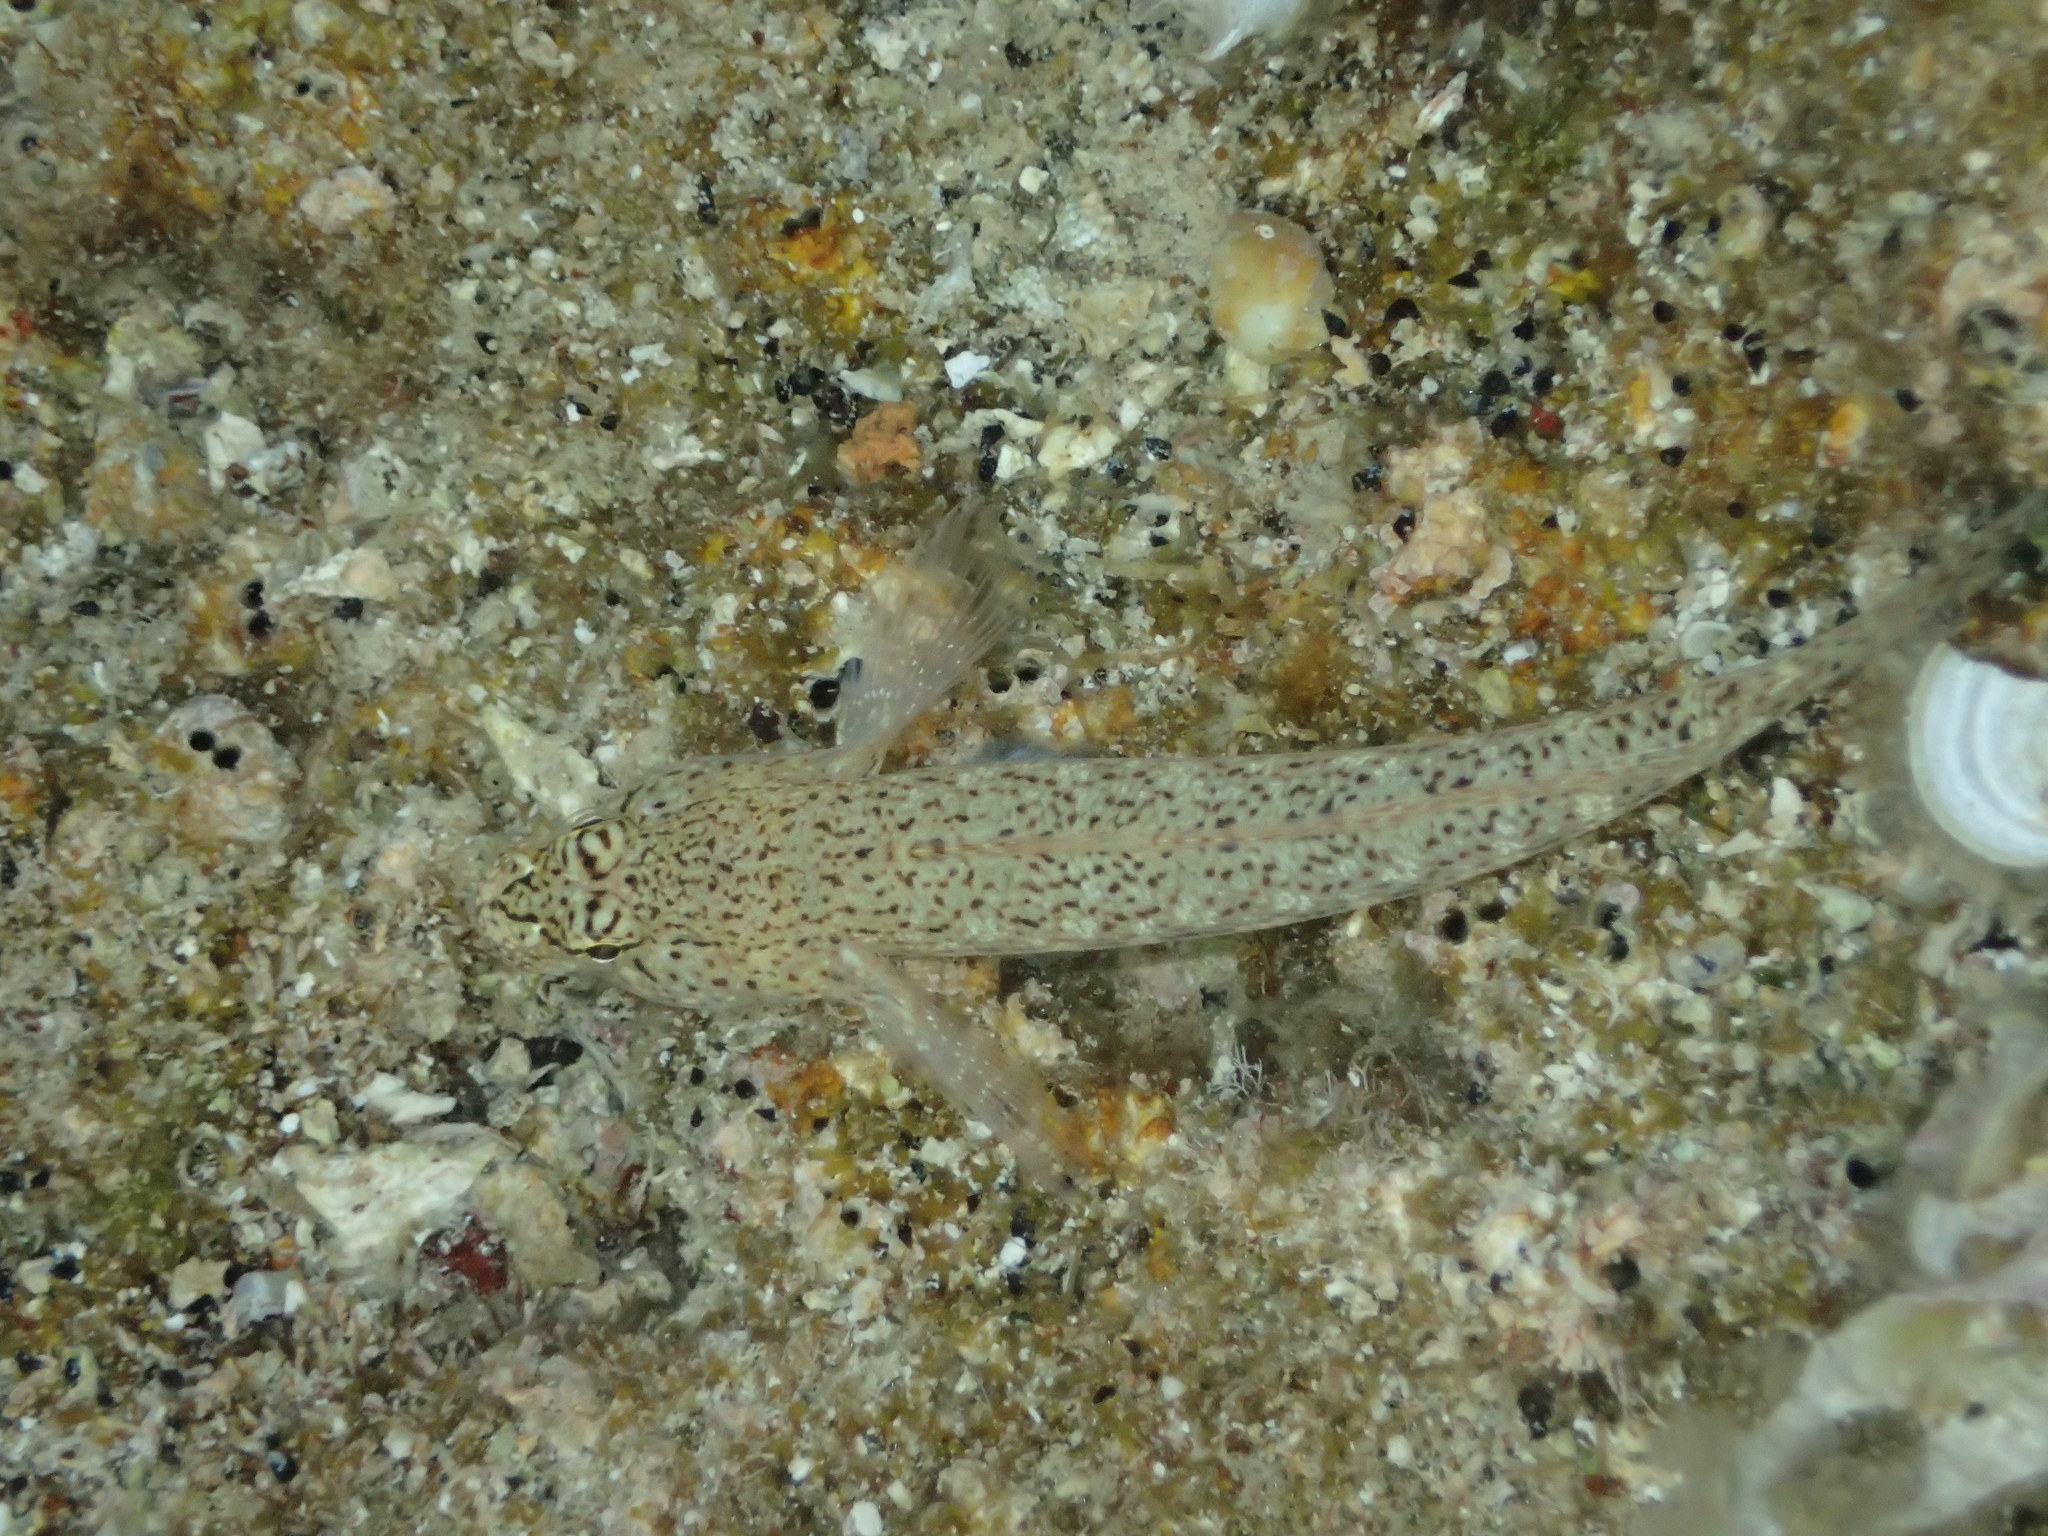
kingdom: Animalia
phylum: Chordata
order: Perciformes
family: Gobiidae
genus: Gobius
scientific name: Gobius incognitus
